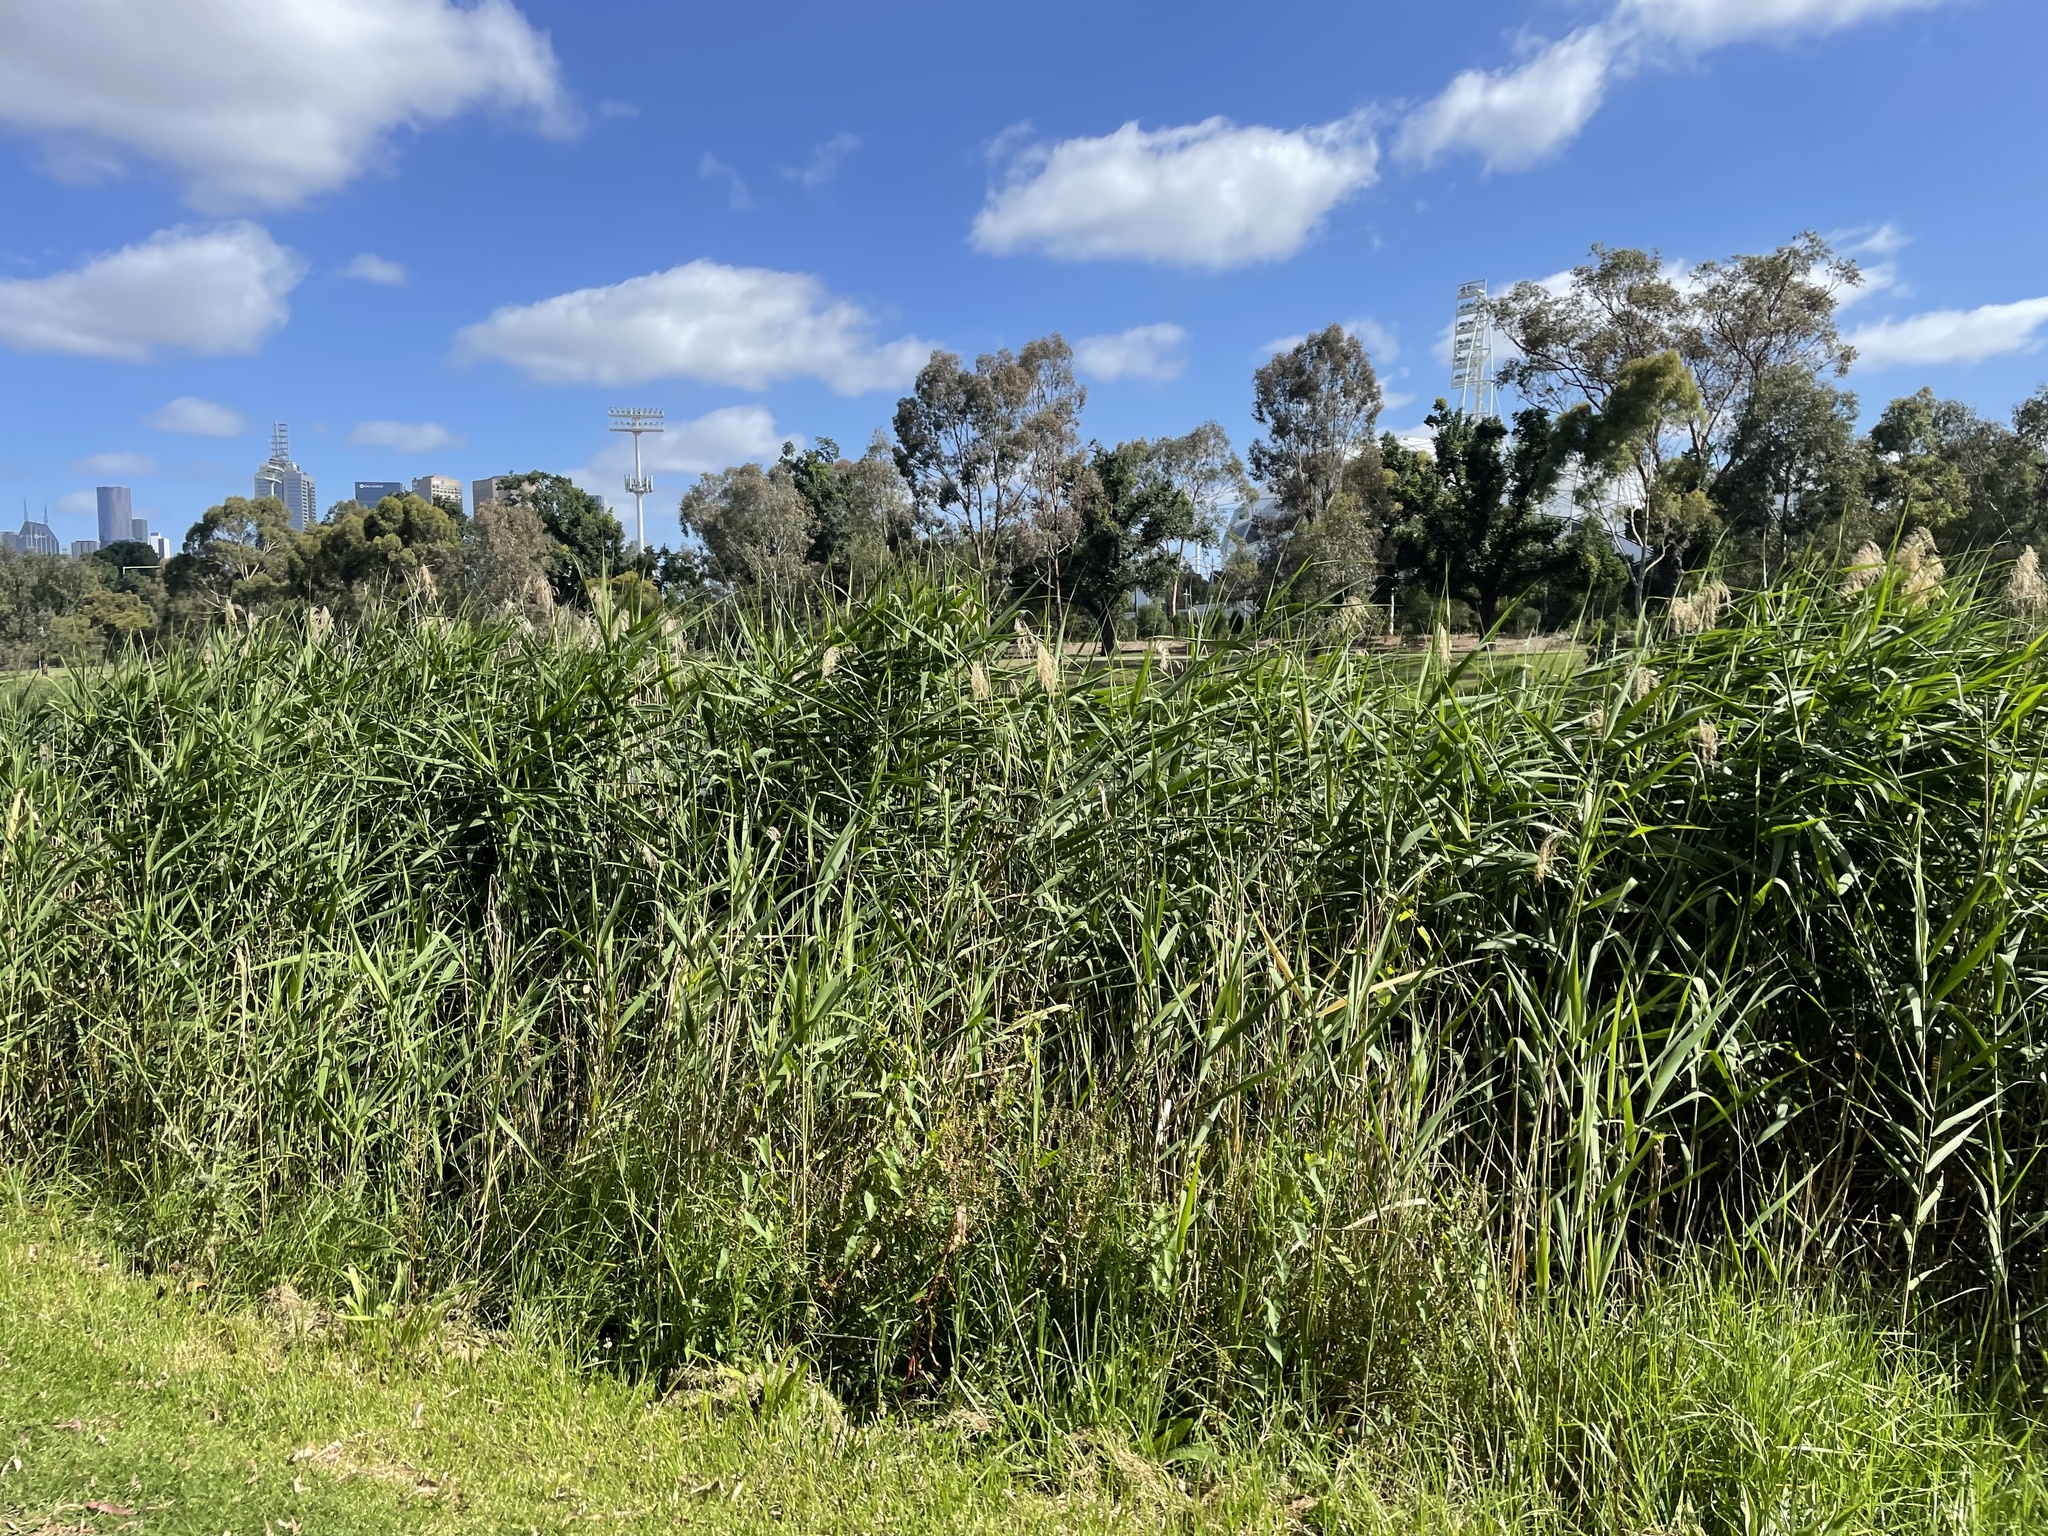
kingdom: Plantae
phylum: Tracheophyta
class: Liliopsida
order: Poales
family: Poaceae
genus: Phragmites
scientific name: Phragmites australis
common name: Common reed
